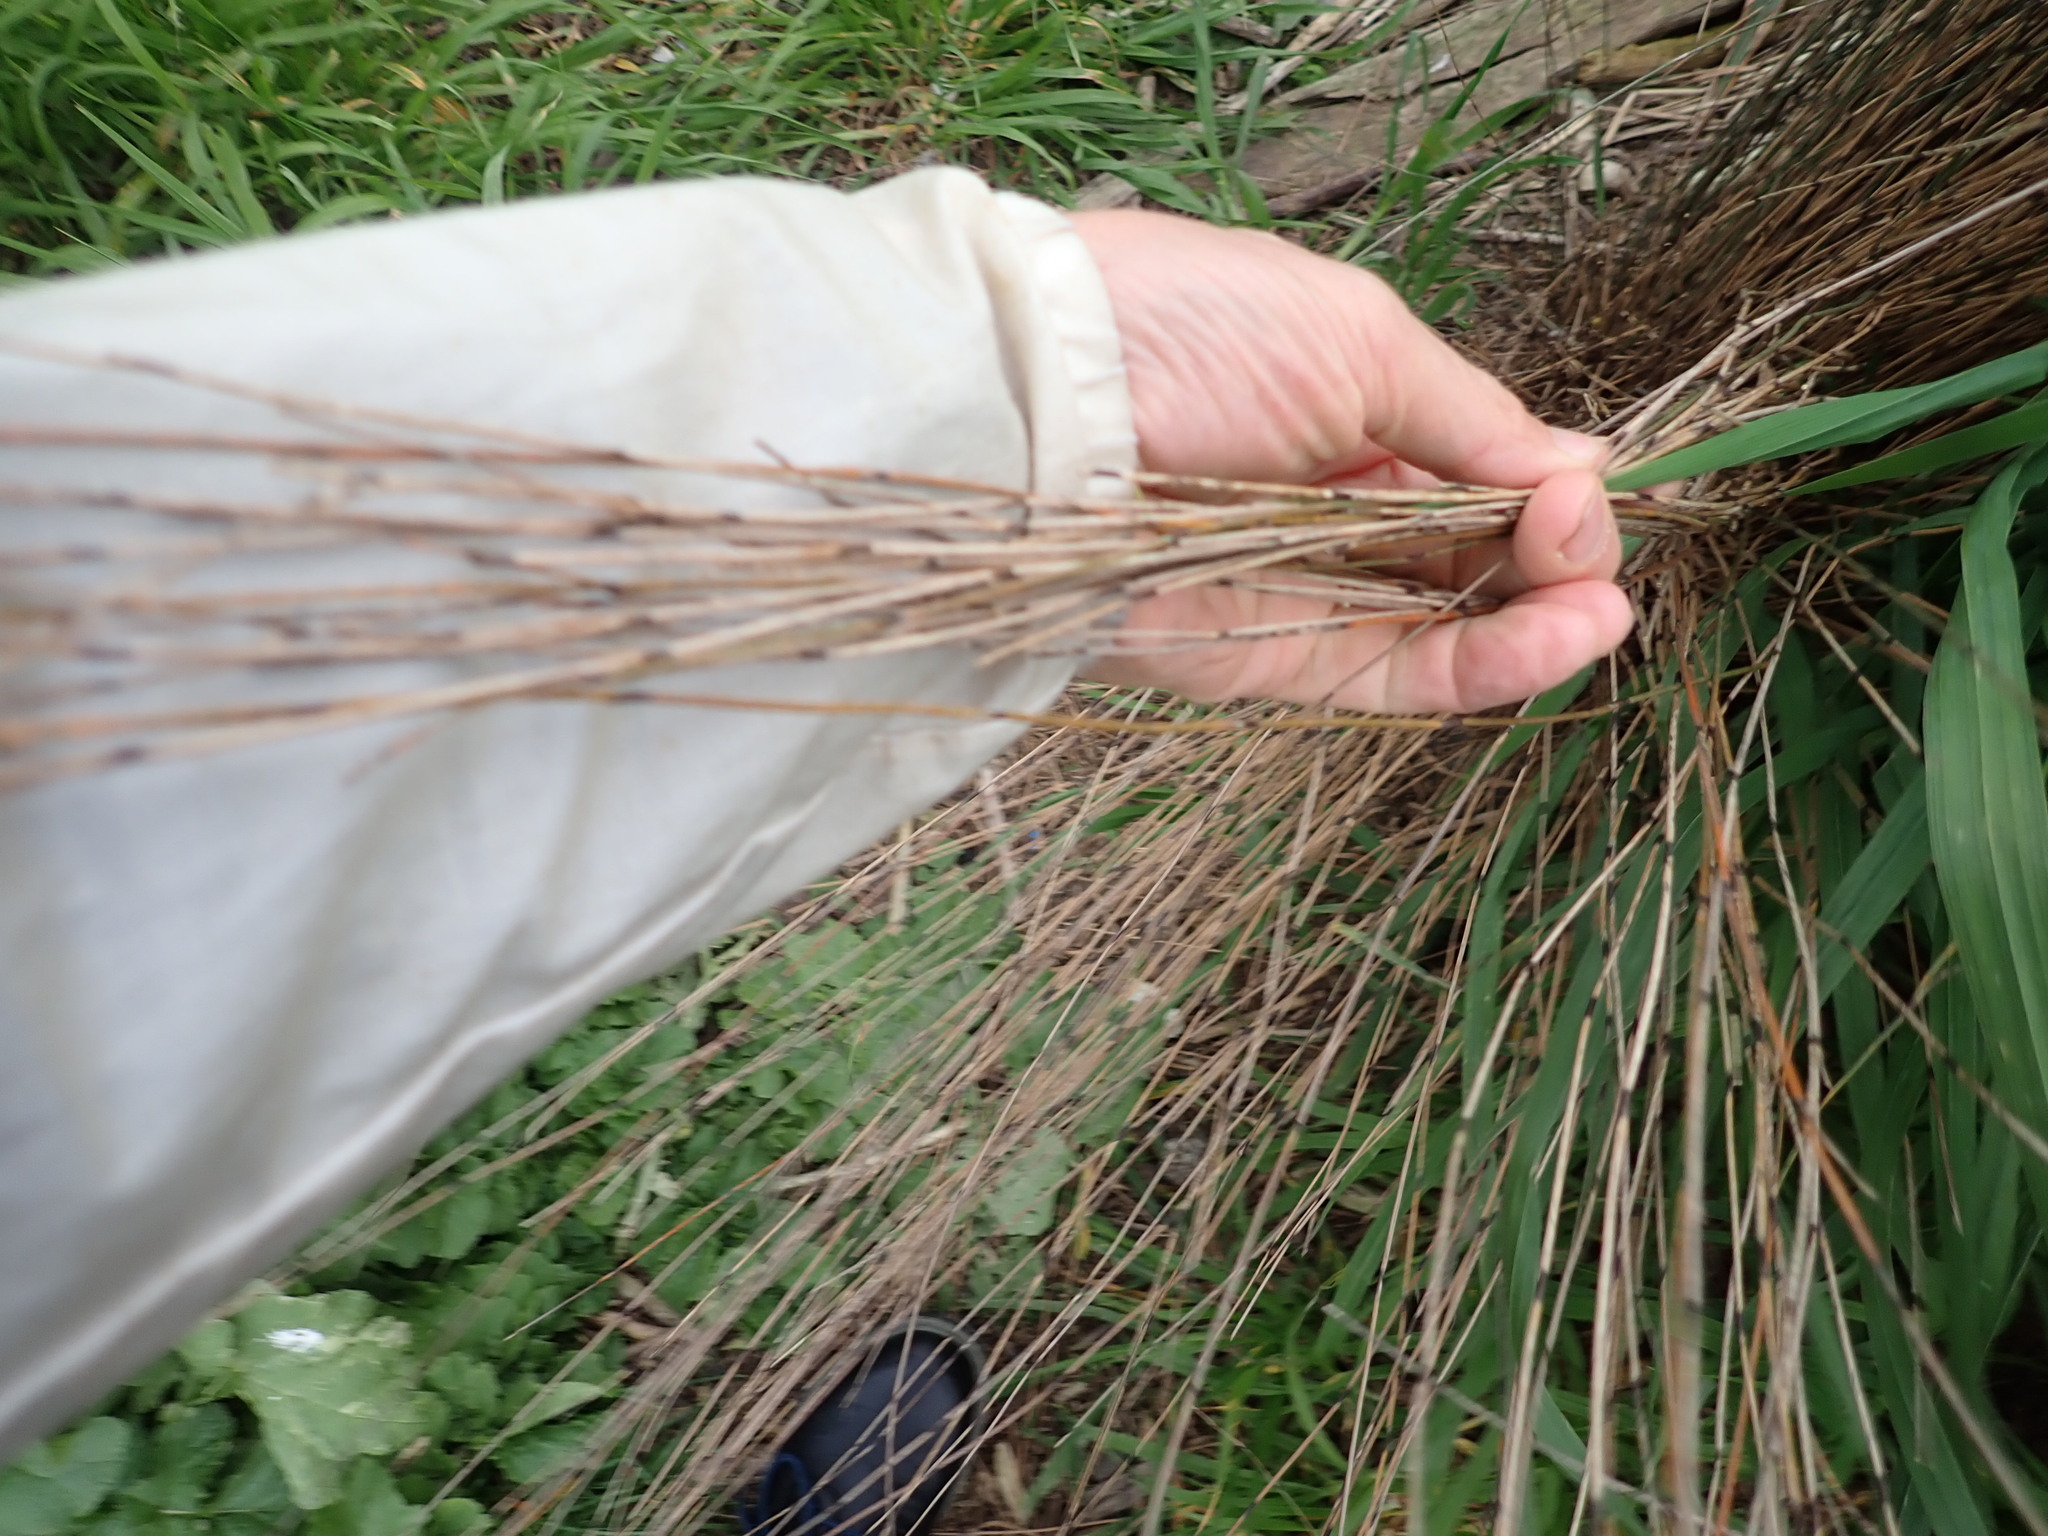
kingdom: Plantae
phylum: Tracheophyta
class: Liliopsida
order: Poales
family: Restionaceae
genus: Apodasmia
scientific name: Apodasmia similis
